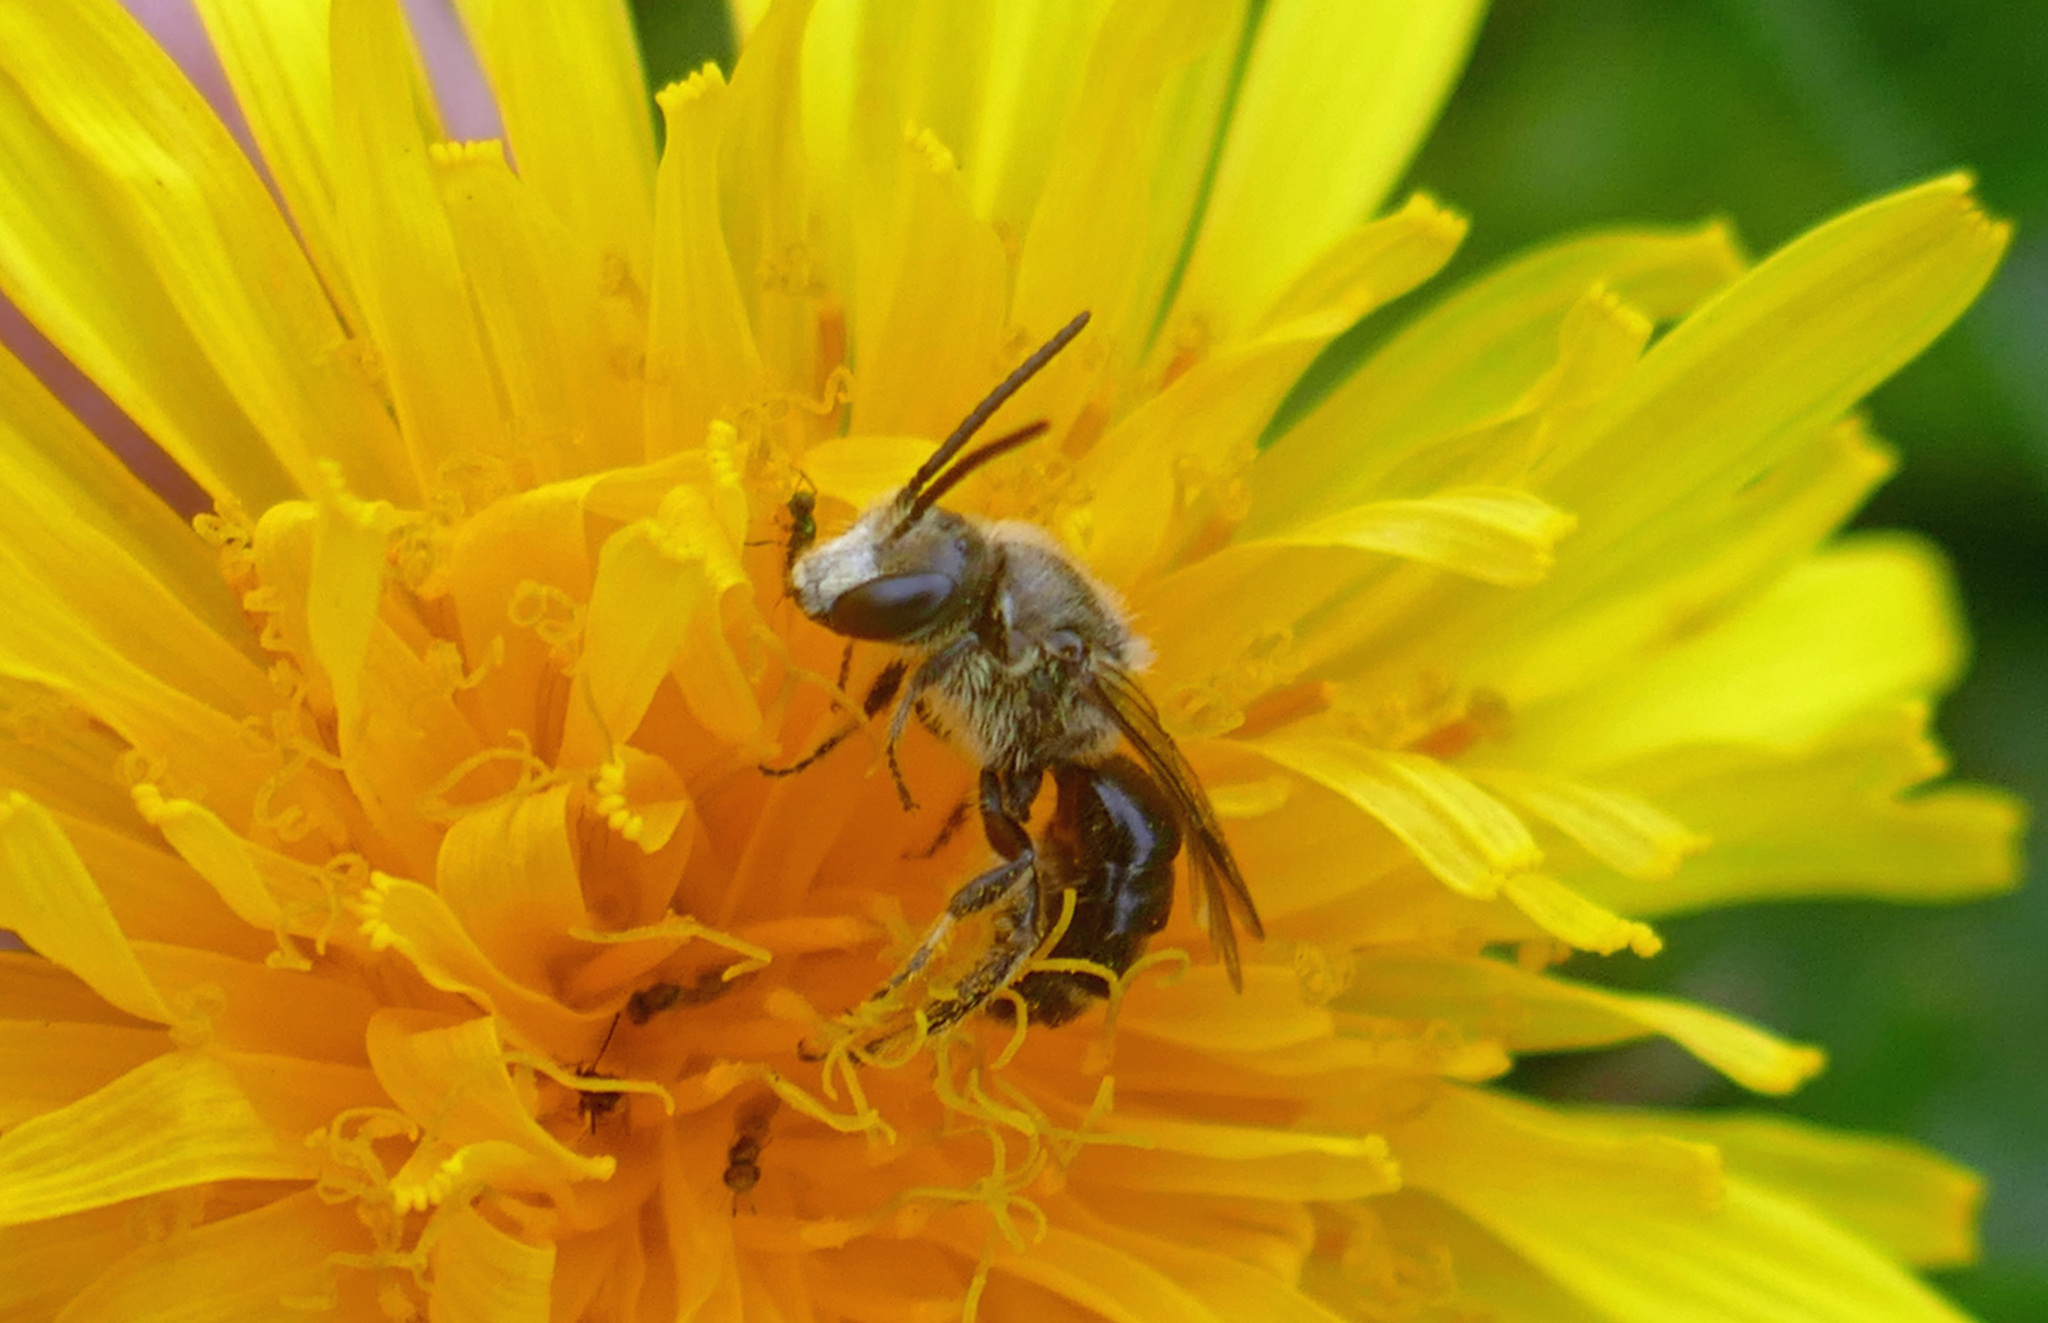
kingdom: Animalia
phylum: Arthropoda
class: Insecta
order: Hymenoptera
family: Halictidae
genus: Lasioglossum
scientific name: Lasioglossum leucozonium
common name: White-zoned furrow bee
